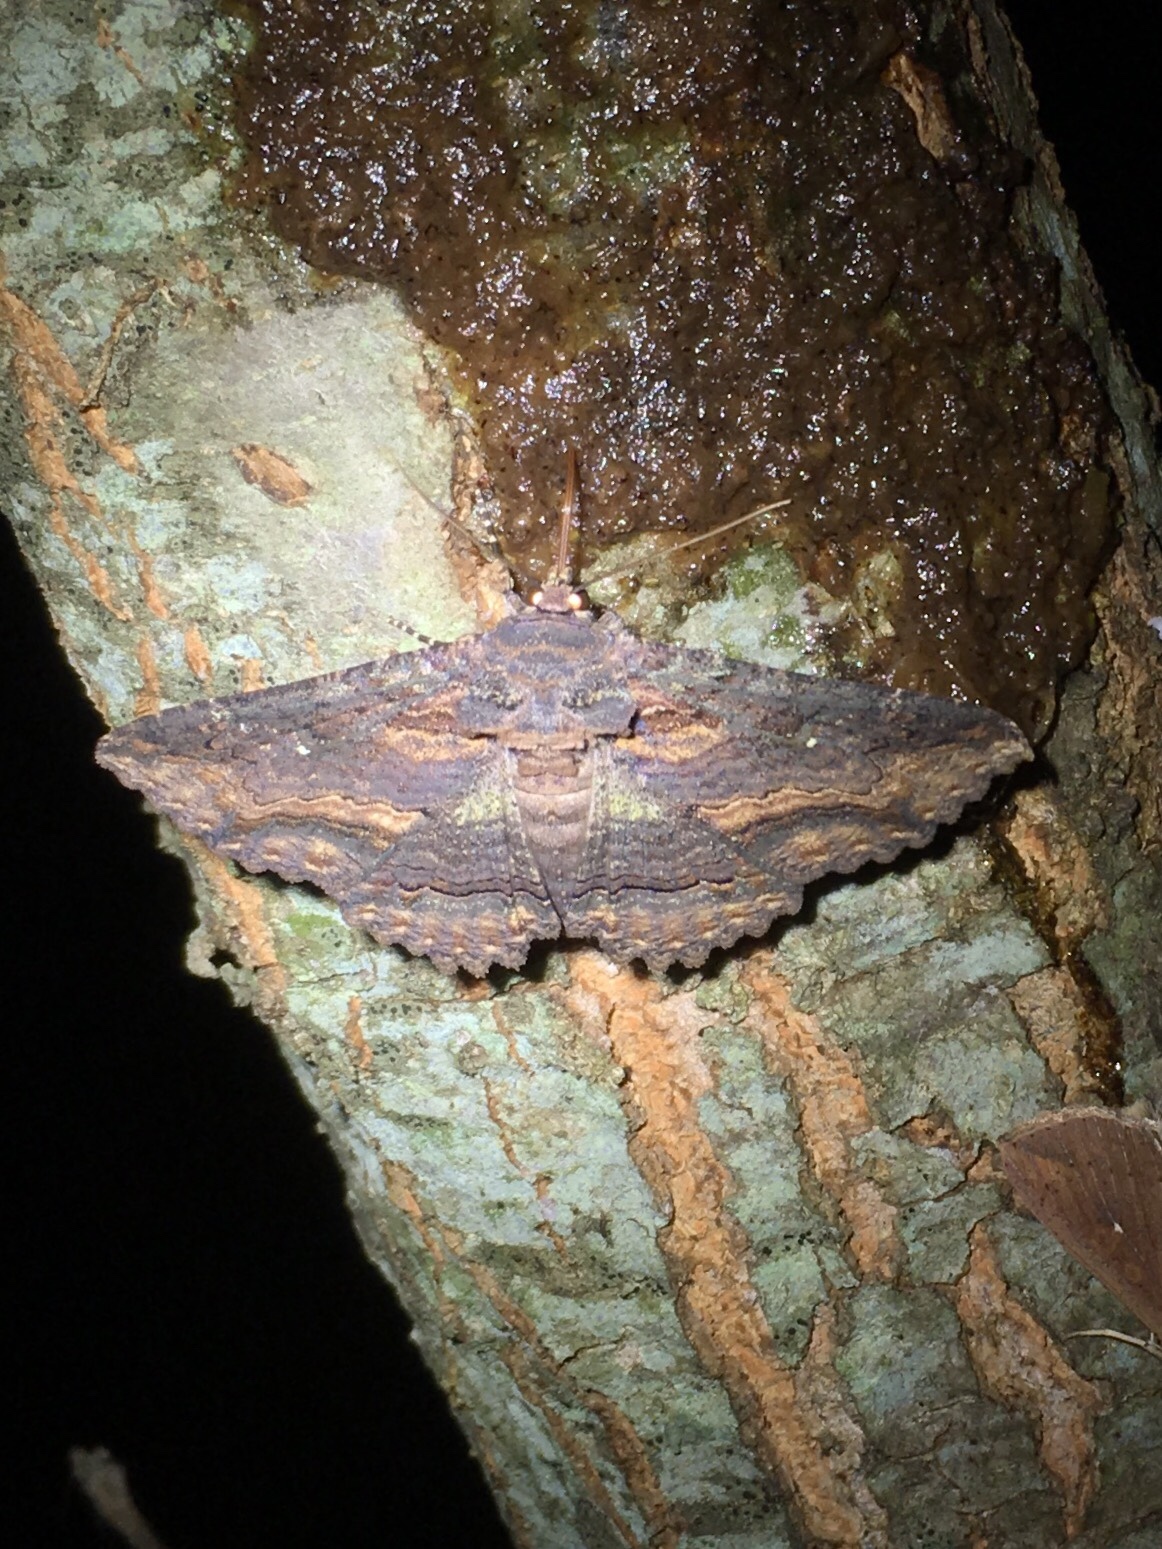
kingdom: Animalia
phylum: Arthropoda
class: Insecta
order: Lepidoptera
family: Erebidae
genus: Zale
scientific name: Zale lunata
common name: Lunate zale moth
